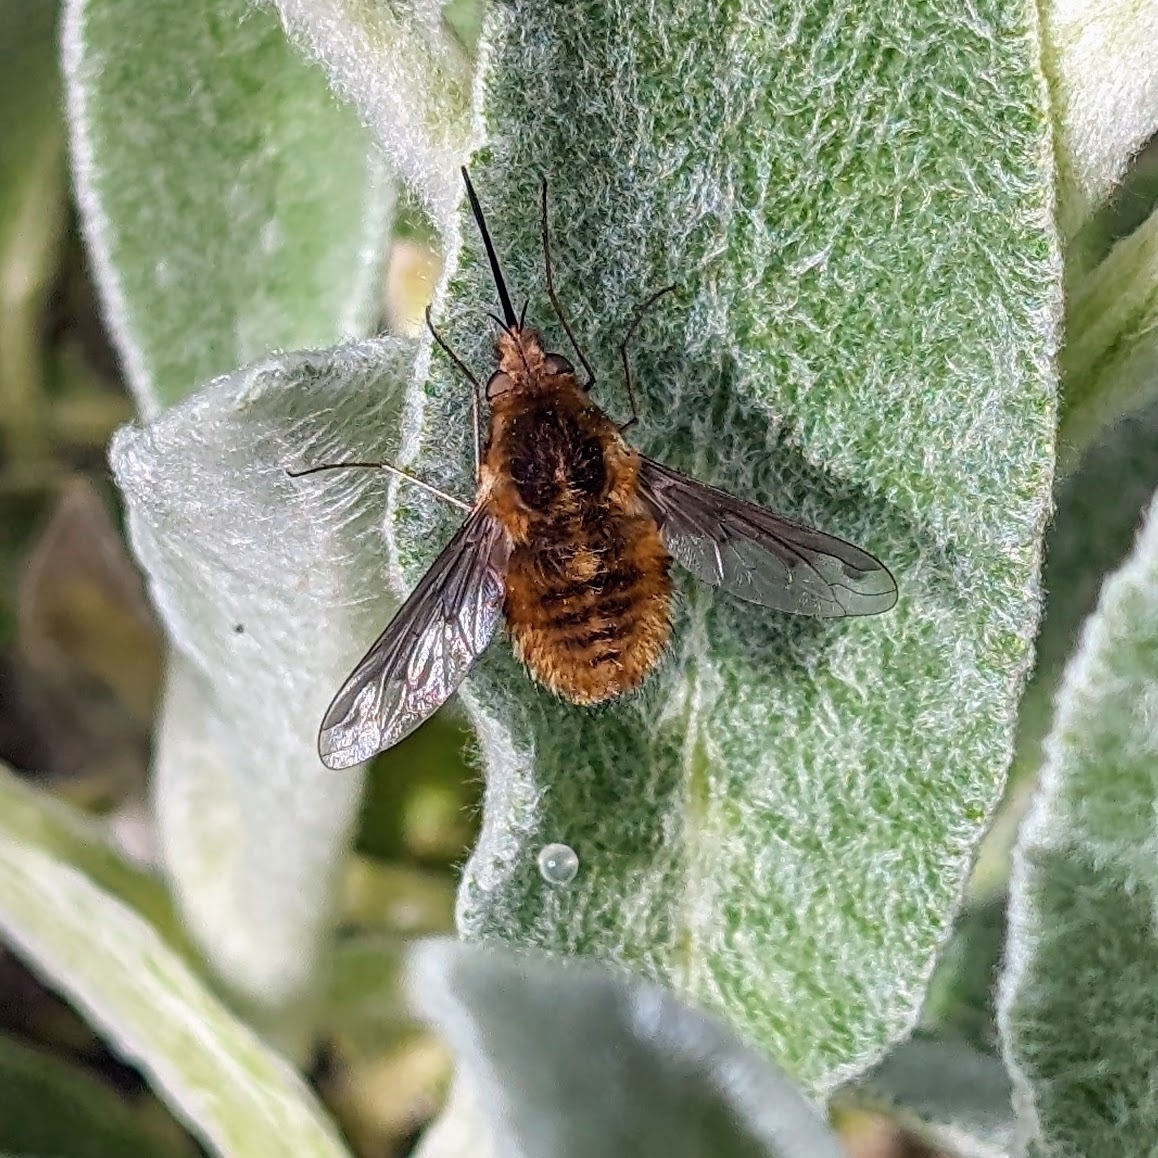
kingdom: Animalia
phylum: Arthropoda
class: Insecta
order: Diptera
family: Bombyliidae
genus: Bombylius
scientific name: Bombylius major
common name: Bee fly
